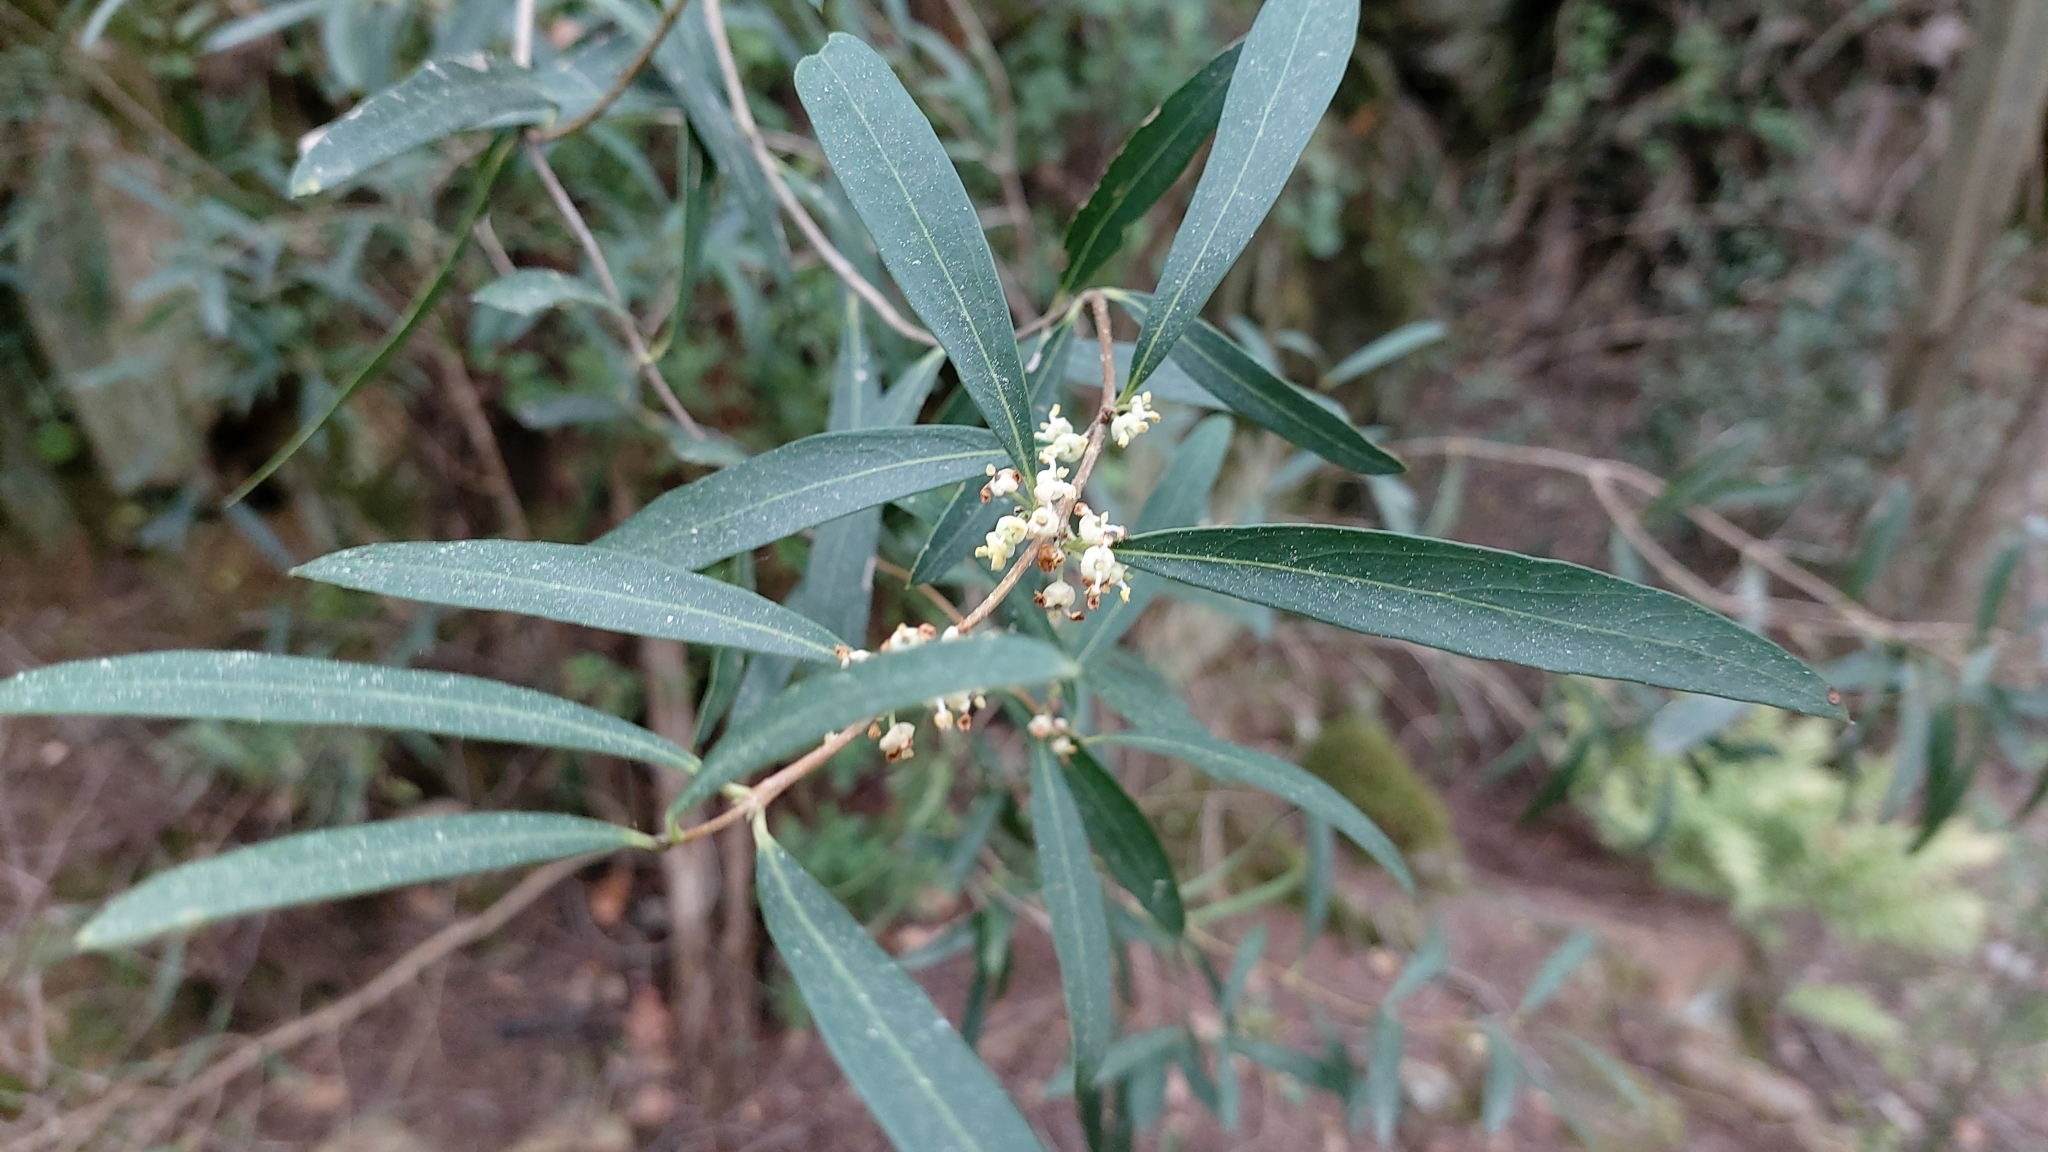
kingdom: Plantae
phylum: Tracheophyta
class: Magnoliopsida
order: Lamiales
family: Oleaceae
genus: Phillyrea
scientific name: Phillyrea angustifolia
